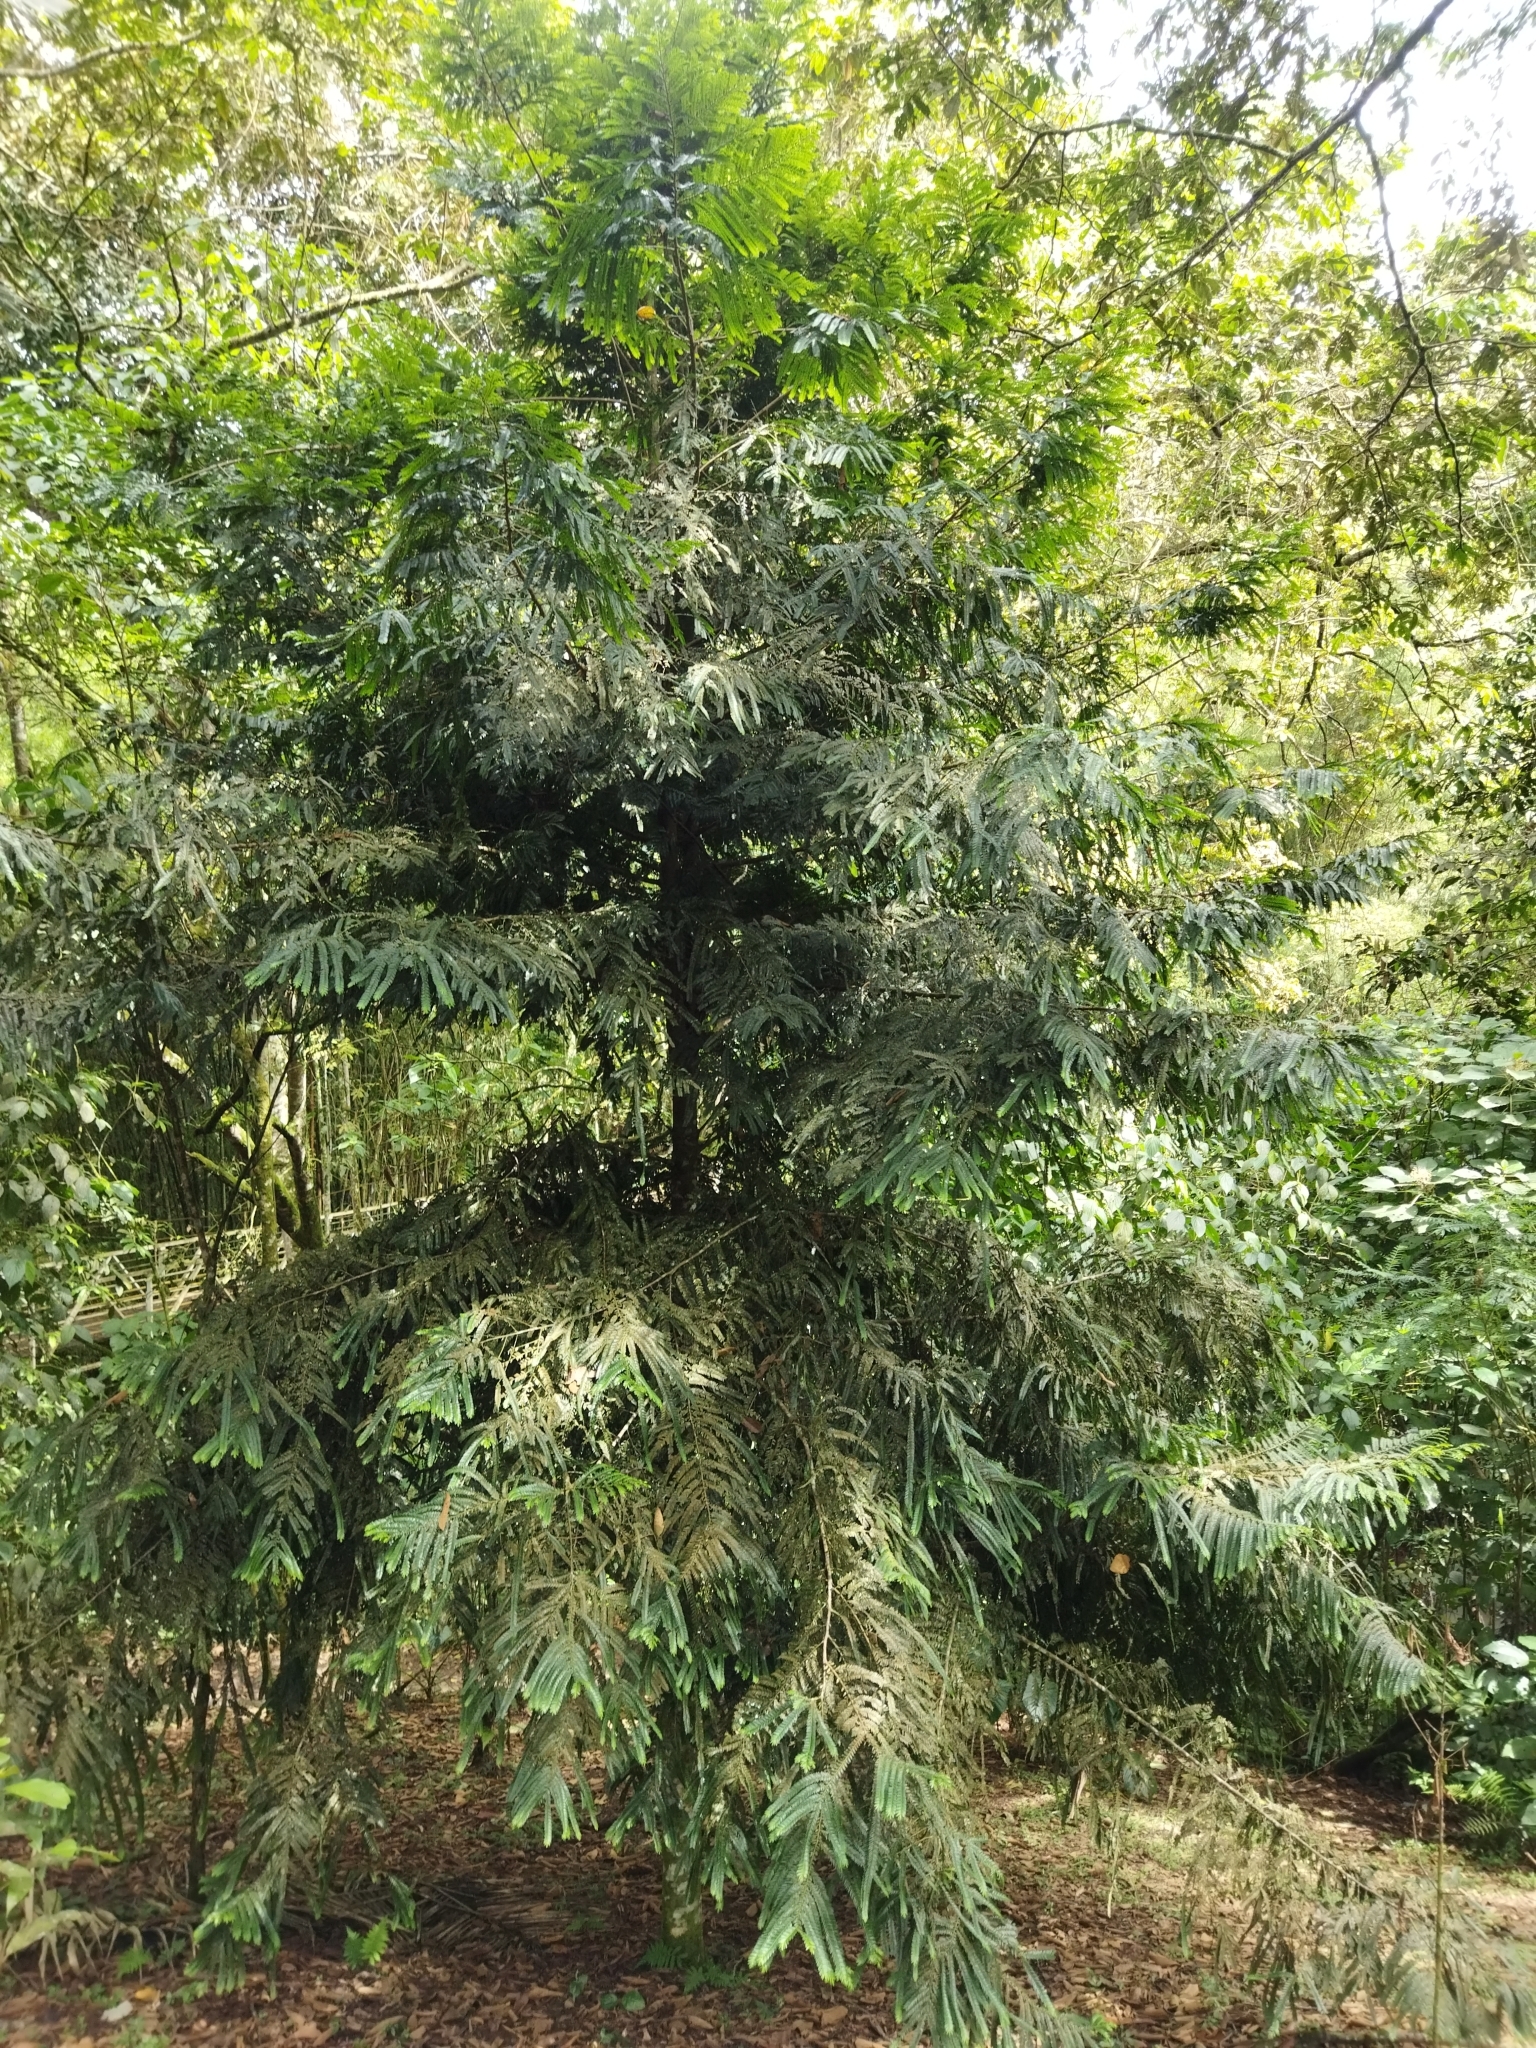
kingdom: Plantae
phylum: Tracheophyta
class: Pinopsida
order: Pinales
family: Podocarpaceae
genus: Retrophyllum
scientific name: Retrophyllum rospigliosii
